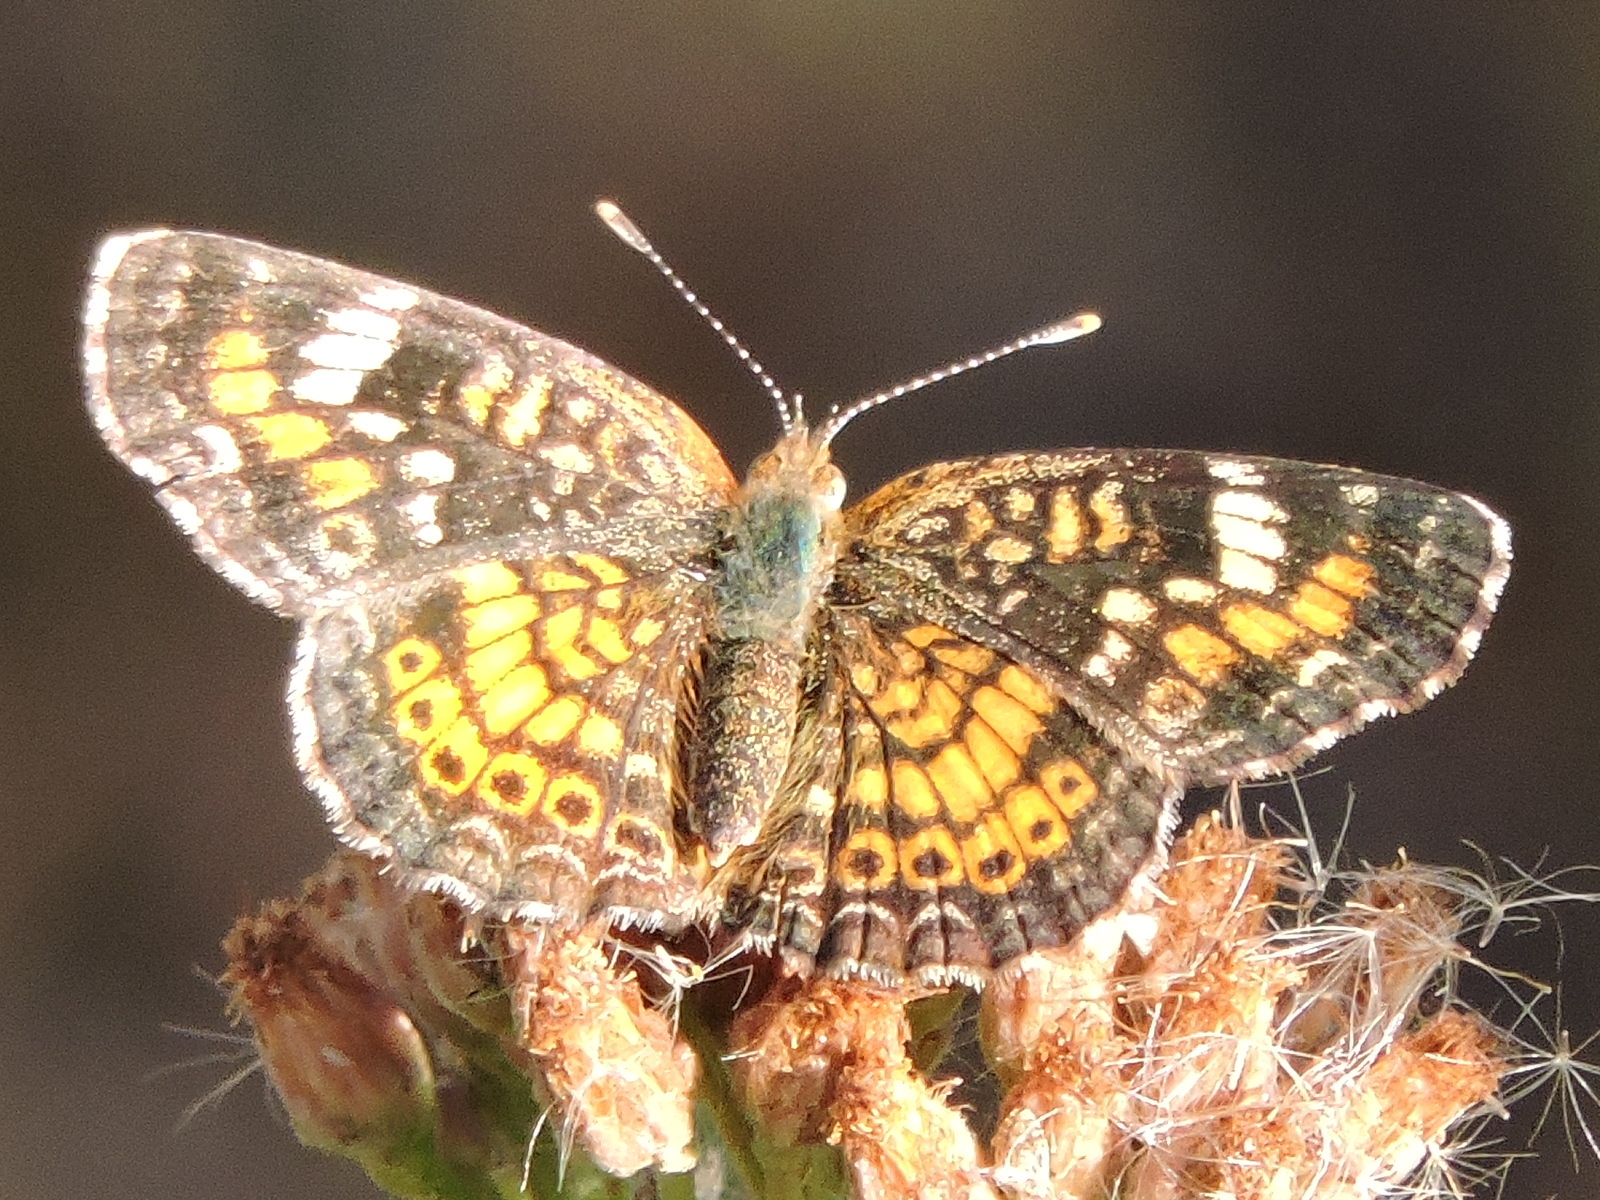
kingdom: Animalia
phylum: Arthropoda
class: Insecta
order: Lepidoptera
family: Nymphalidae
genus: Phyciodes
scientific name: Phyciodes phaon
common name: Phaon crescent
